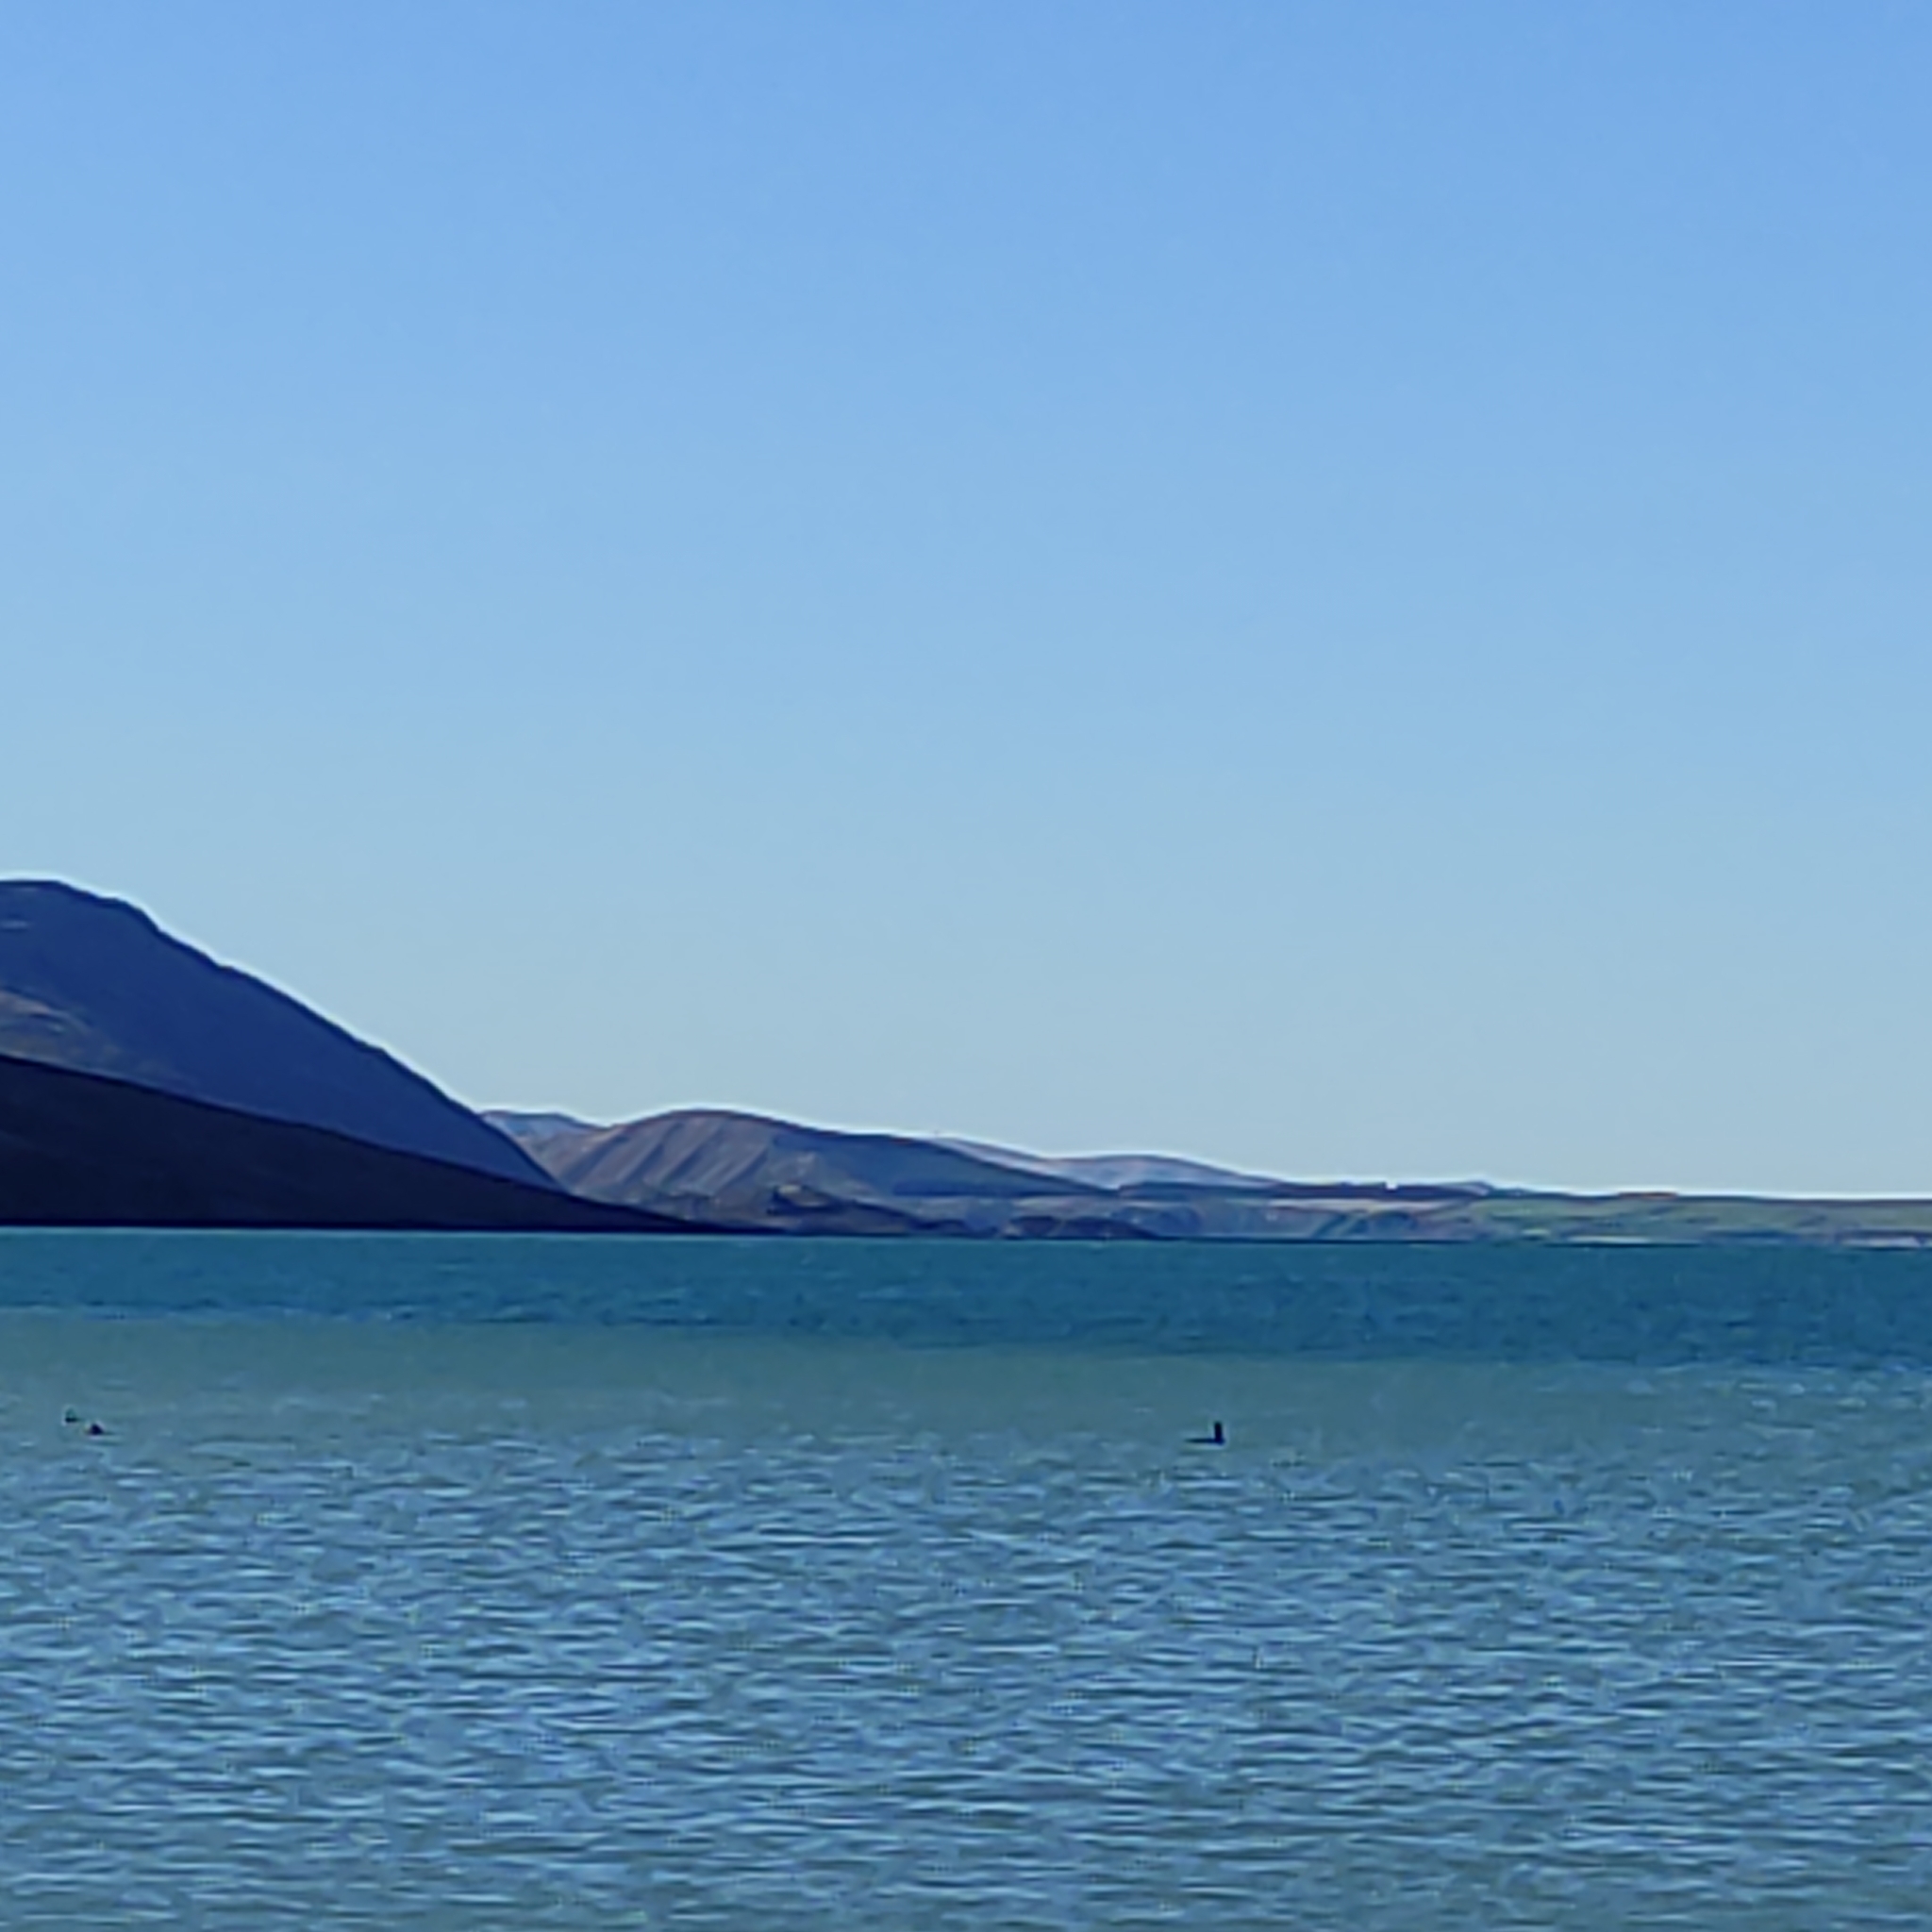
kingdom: Animalia
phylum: Chordata
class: Aves
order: Podicipediformes
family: Podicipedidae
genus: Podiceps
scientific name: Podiceps cristatus
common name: Great crested grebe
